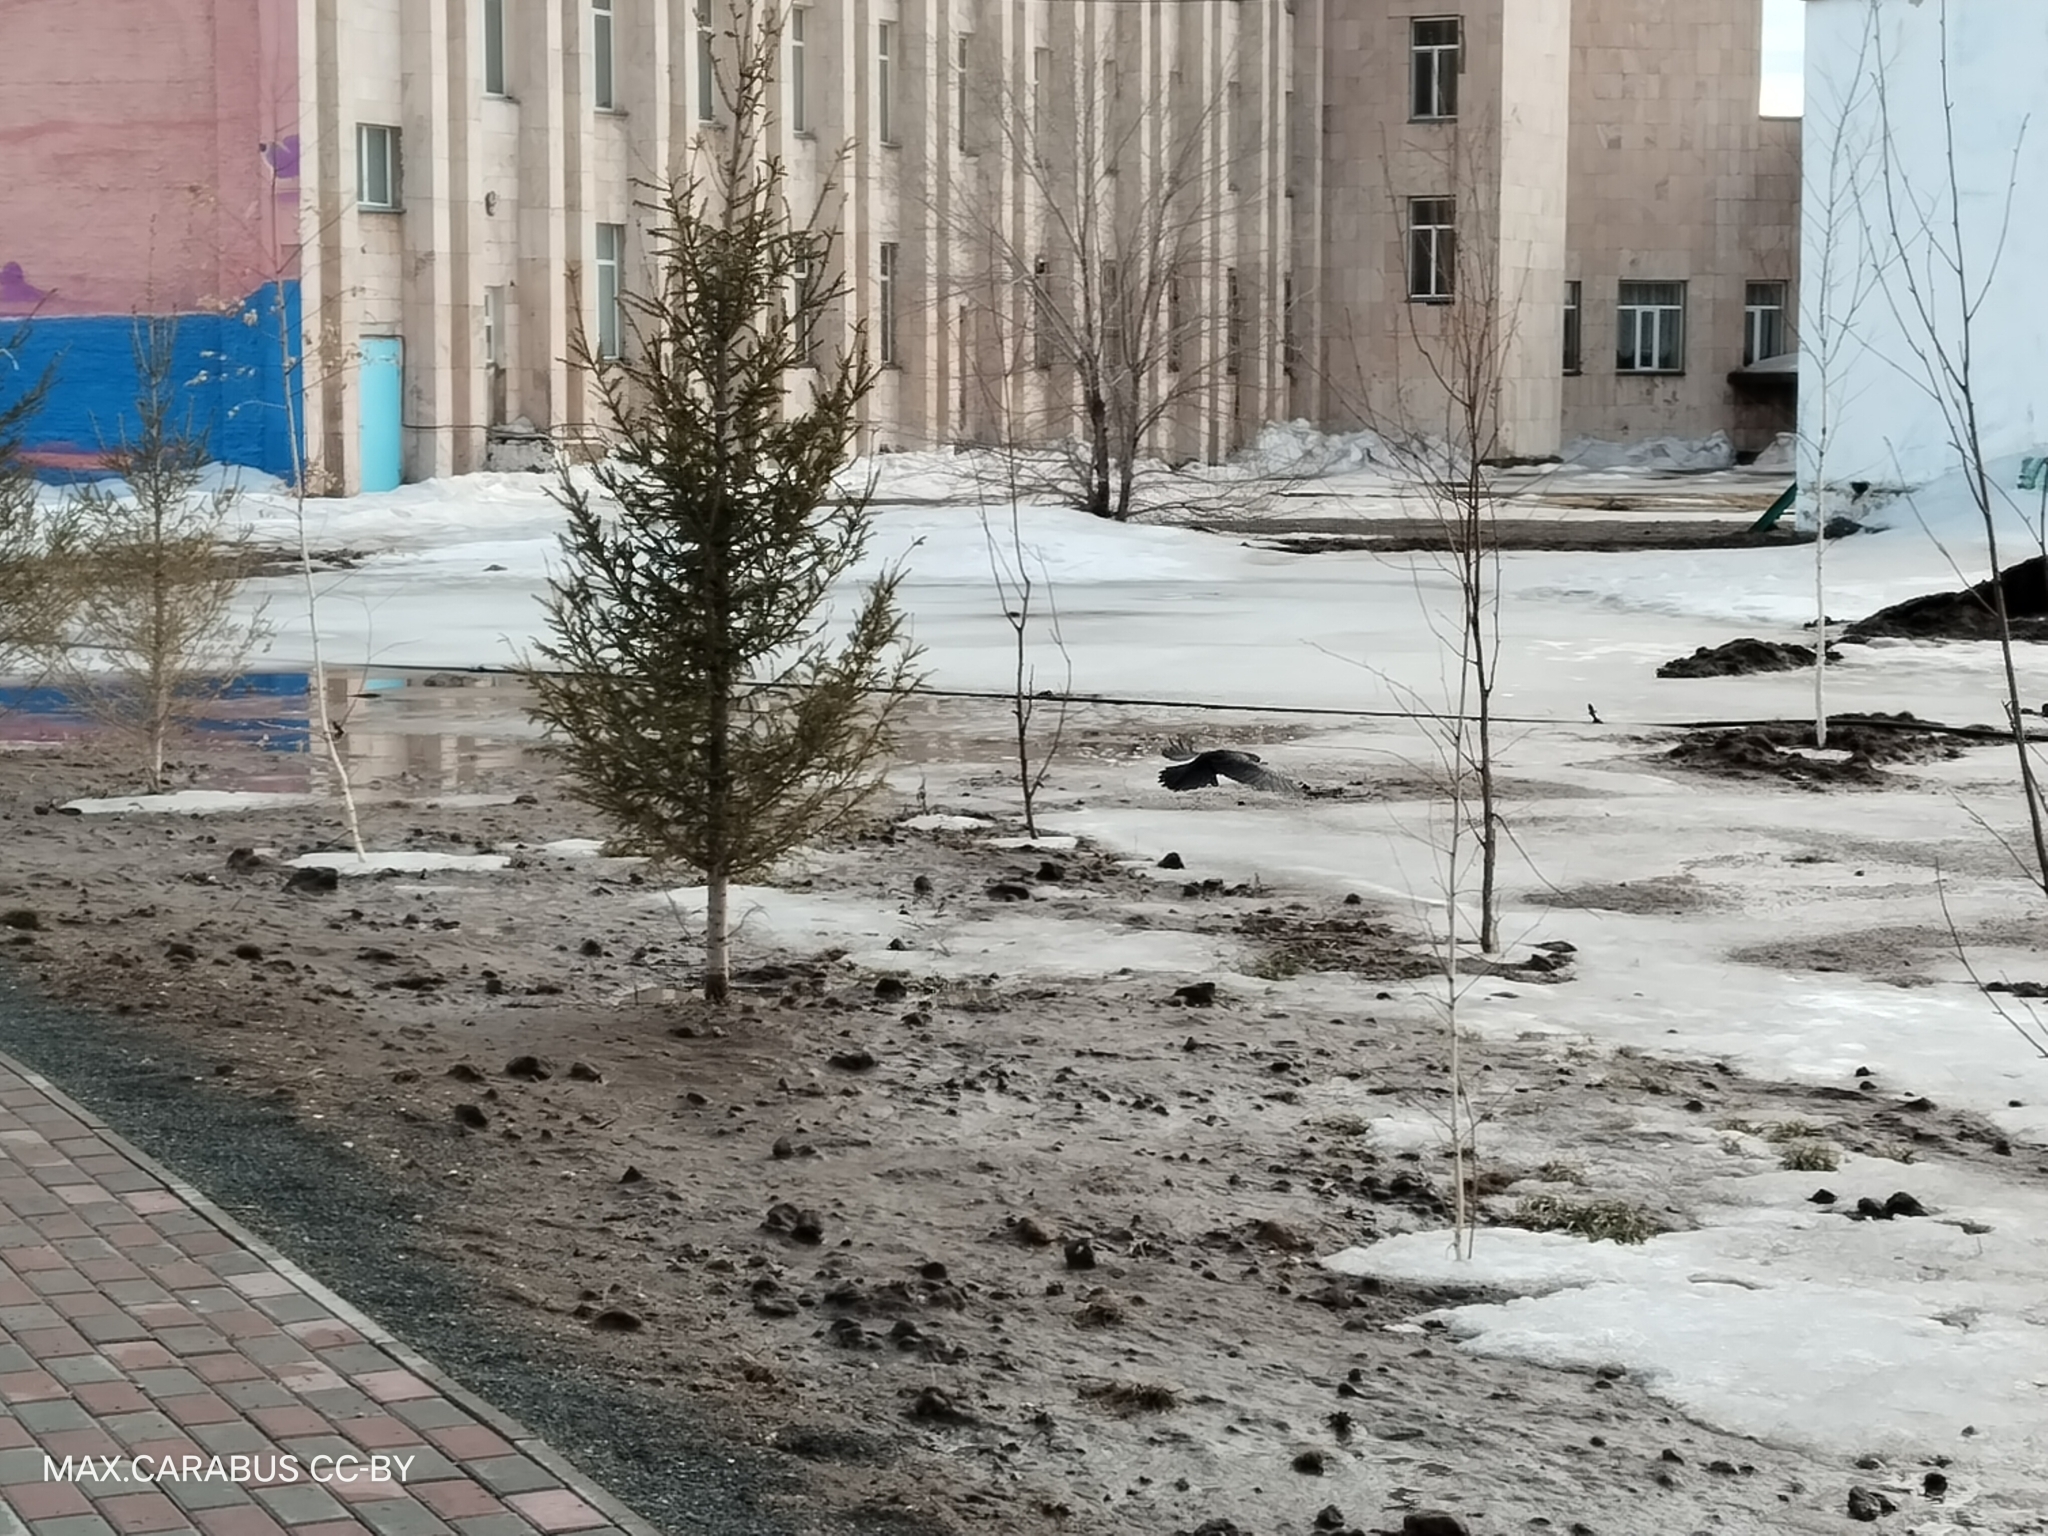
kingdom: Animalia
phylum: Chordata
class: Aves
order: Passeriformes
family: Corvidae
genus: Corvus
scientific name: Corvus frugilegus
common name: Rook
